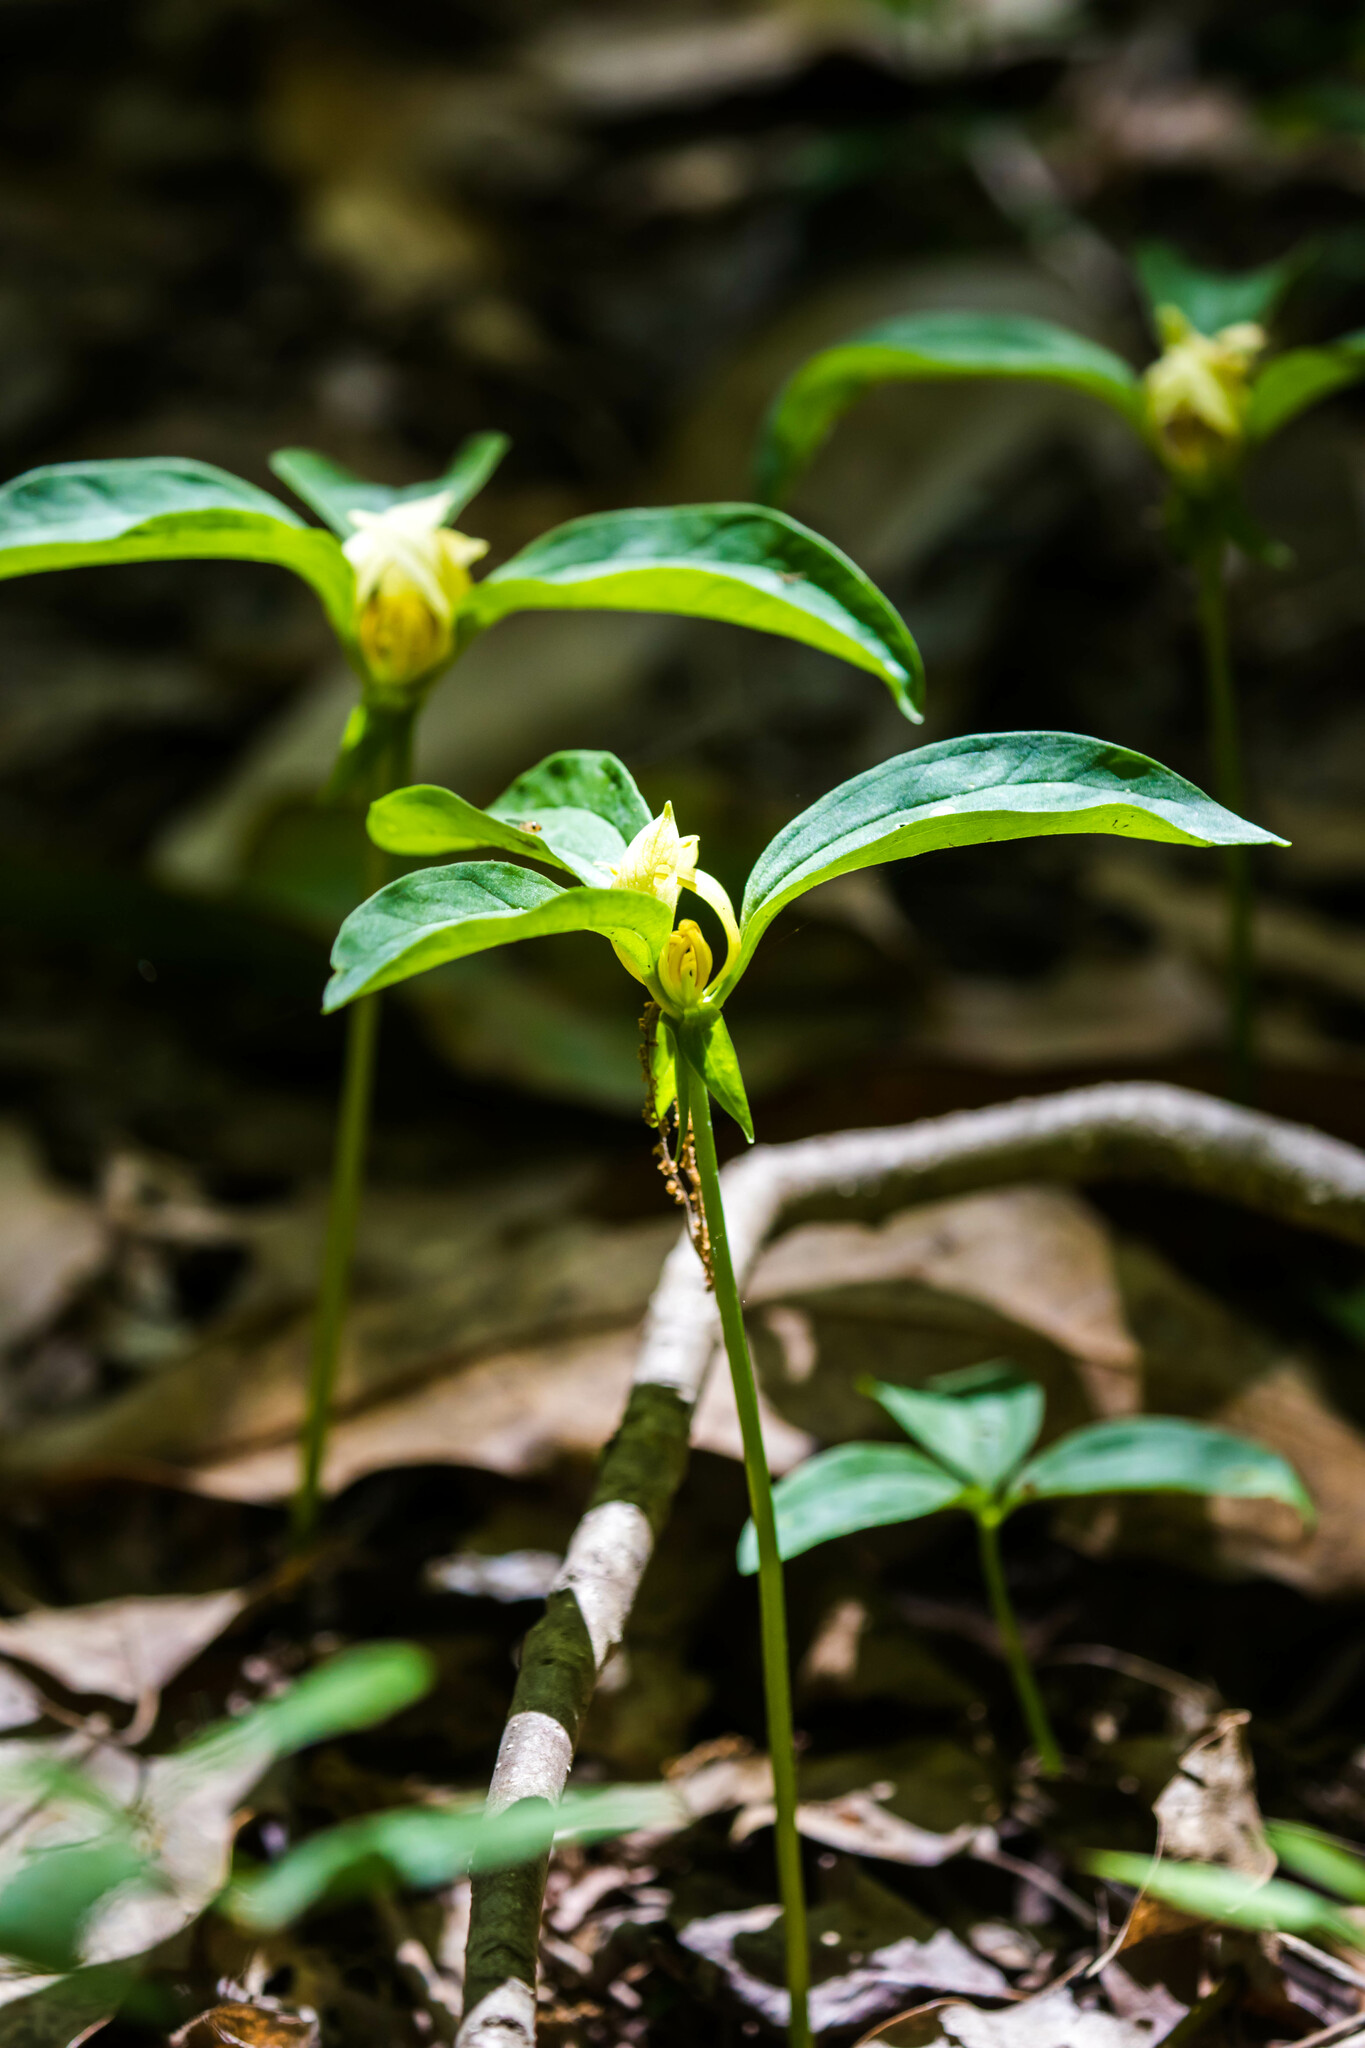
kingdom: Plantae
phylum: Tracheophyta
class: Liliopsida
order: Liliales
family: Melanthiaceae
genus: Trillium
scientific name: Trillium recurvatum
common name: Bloody butcher
